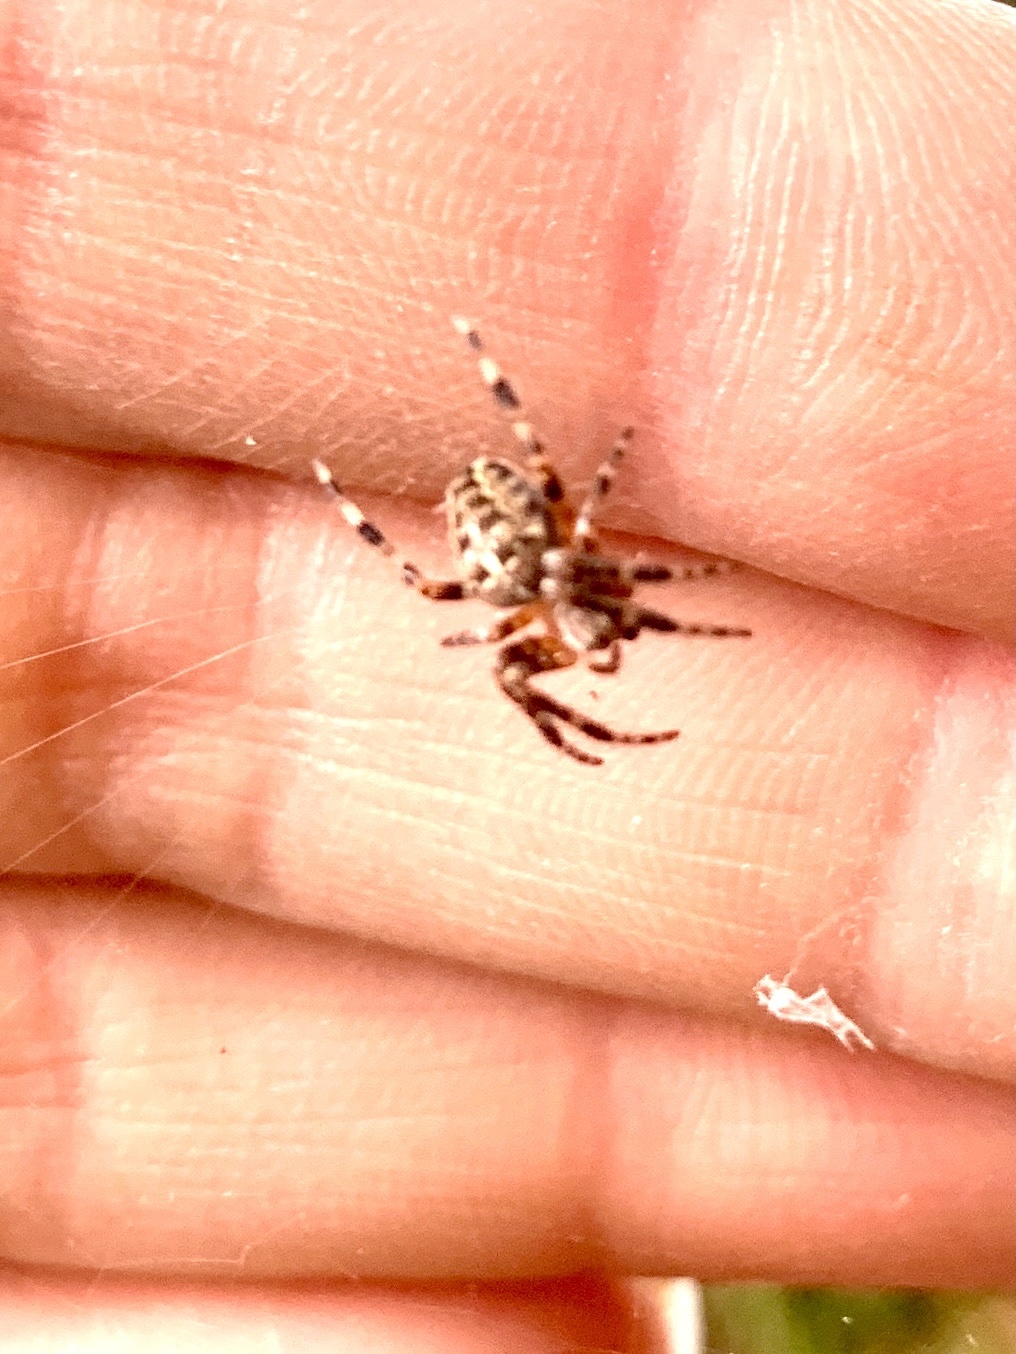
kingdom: Animalia
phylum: Arthropoda
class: Arachnida
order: Araneae
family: Araneidae
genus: Araneus
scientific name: Araneus diadematus
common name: Cross orbweaver
